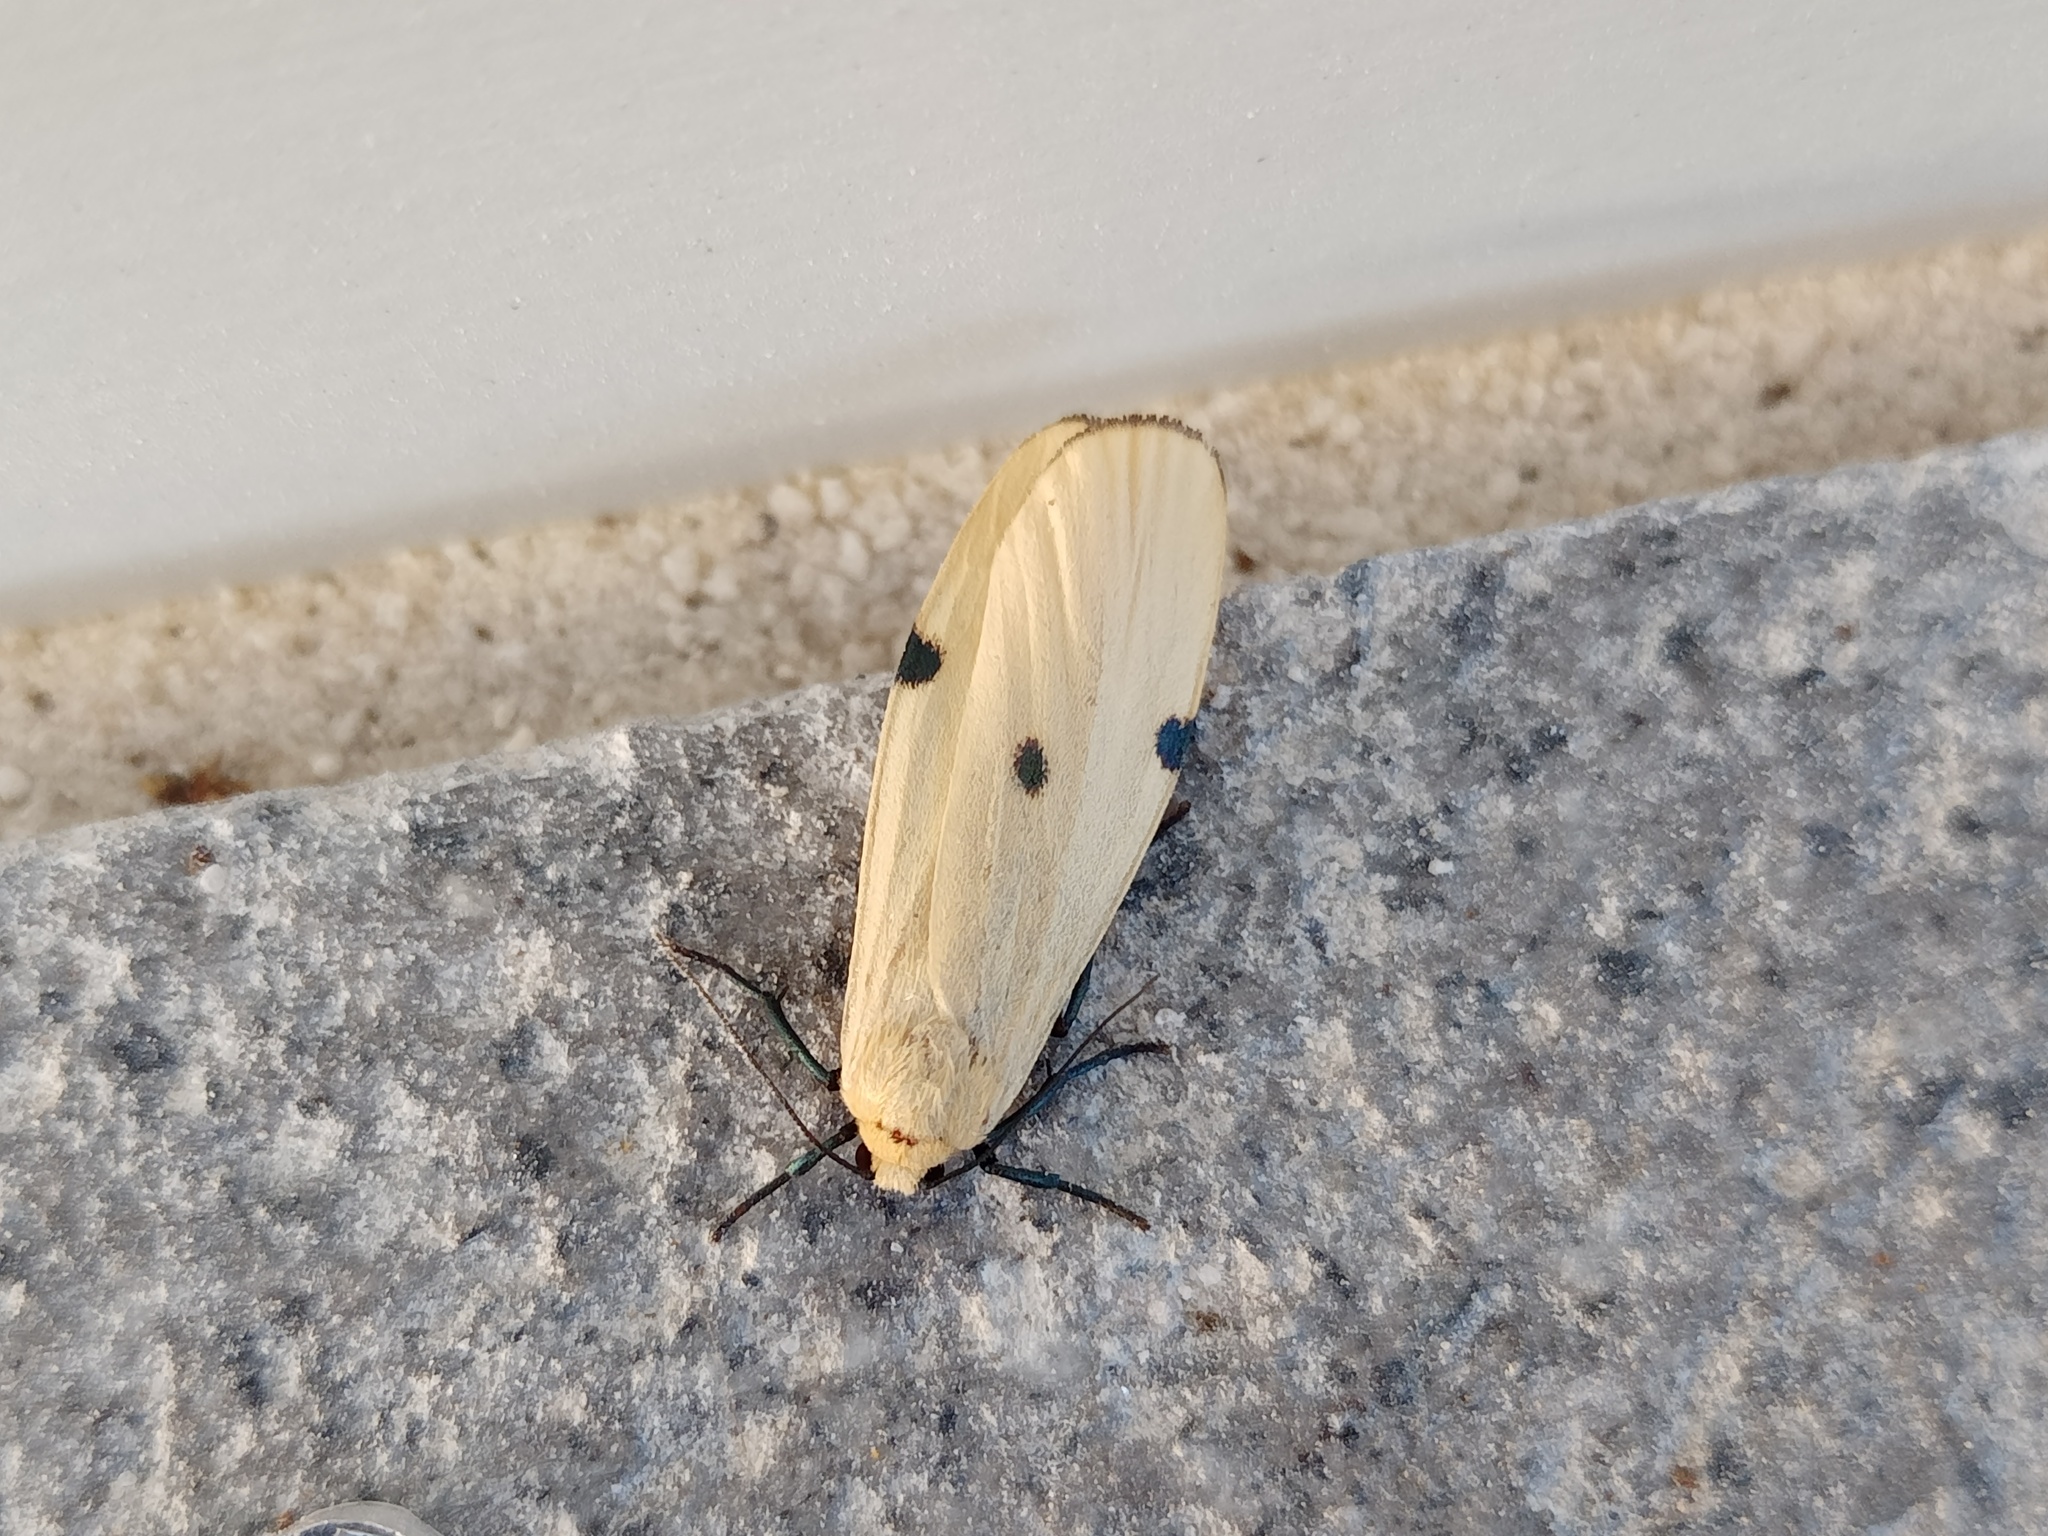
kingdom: Animalia
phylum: Arthropoda
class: Insecta
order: Lepidoptera
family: Erebidae
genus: Lithosia
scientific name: Lithosia quadra
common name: Four-spotted footman
